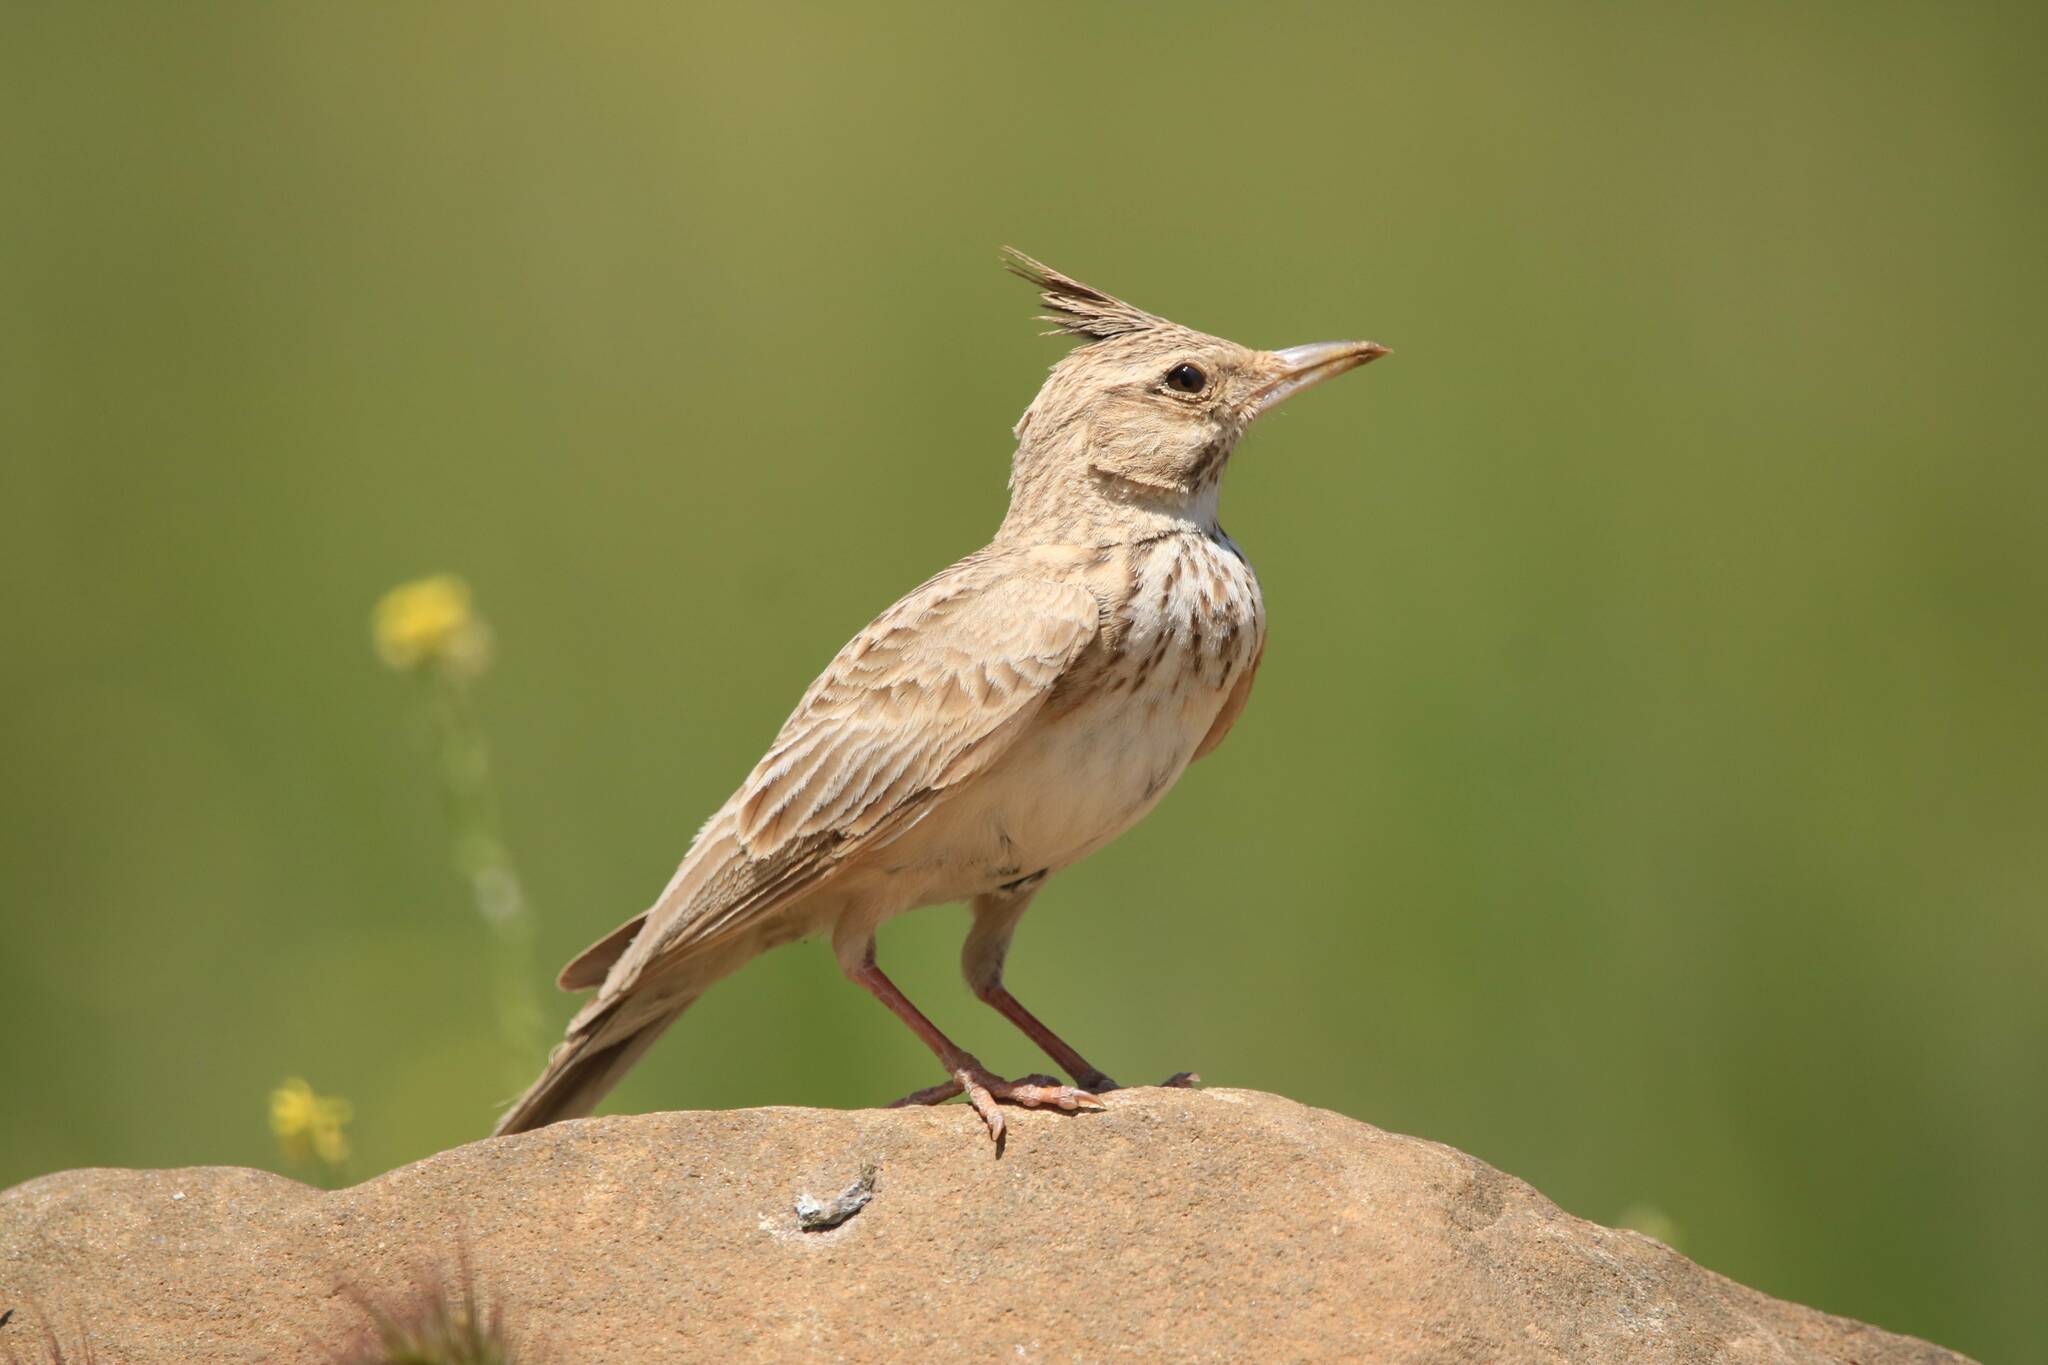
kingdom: Animalia
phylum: Chordata
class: Aves
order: Passeriformes
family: Alaudidae
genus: Galerida
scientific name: Galerida cristata
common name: Crested lark
